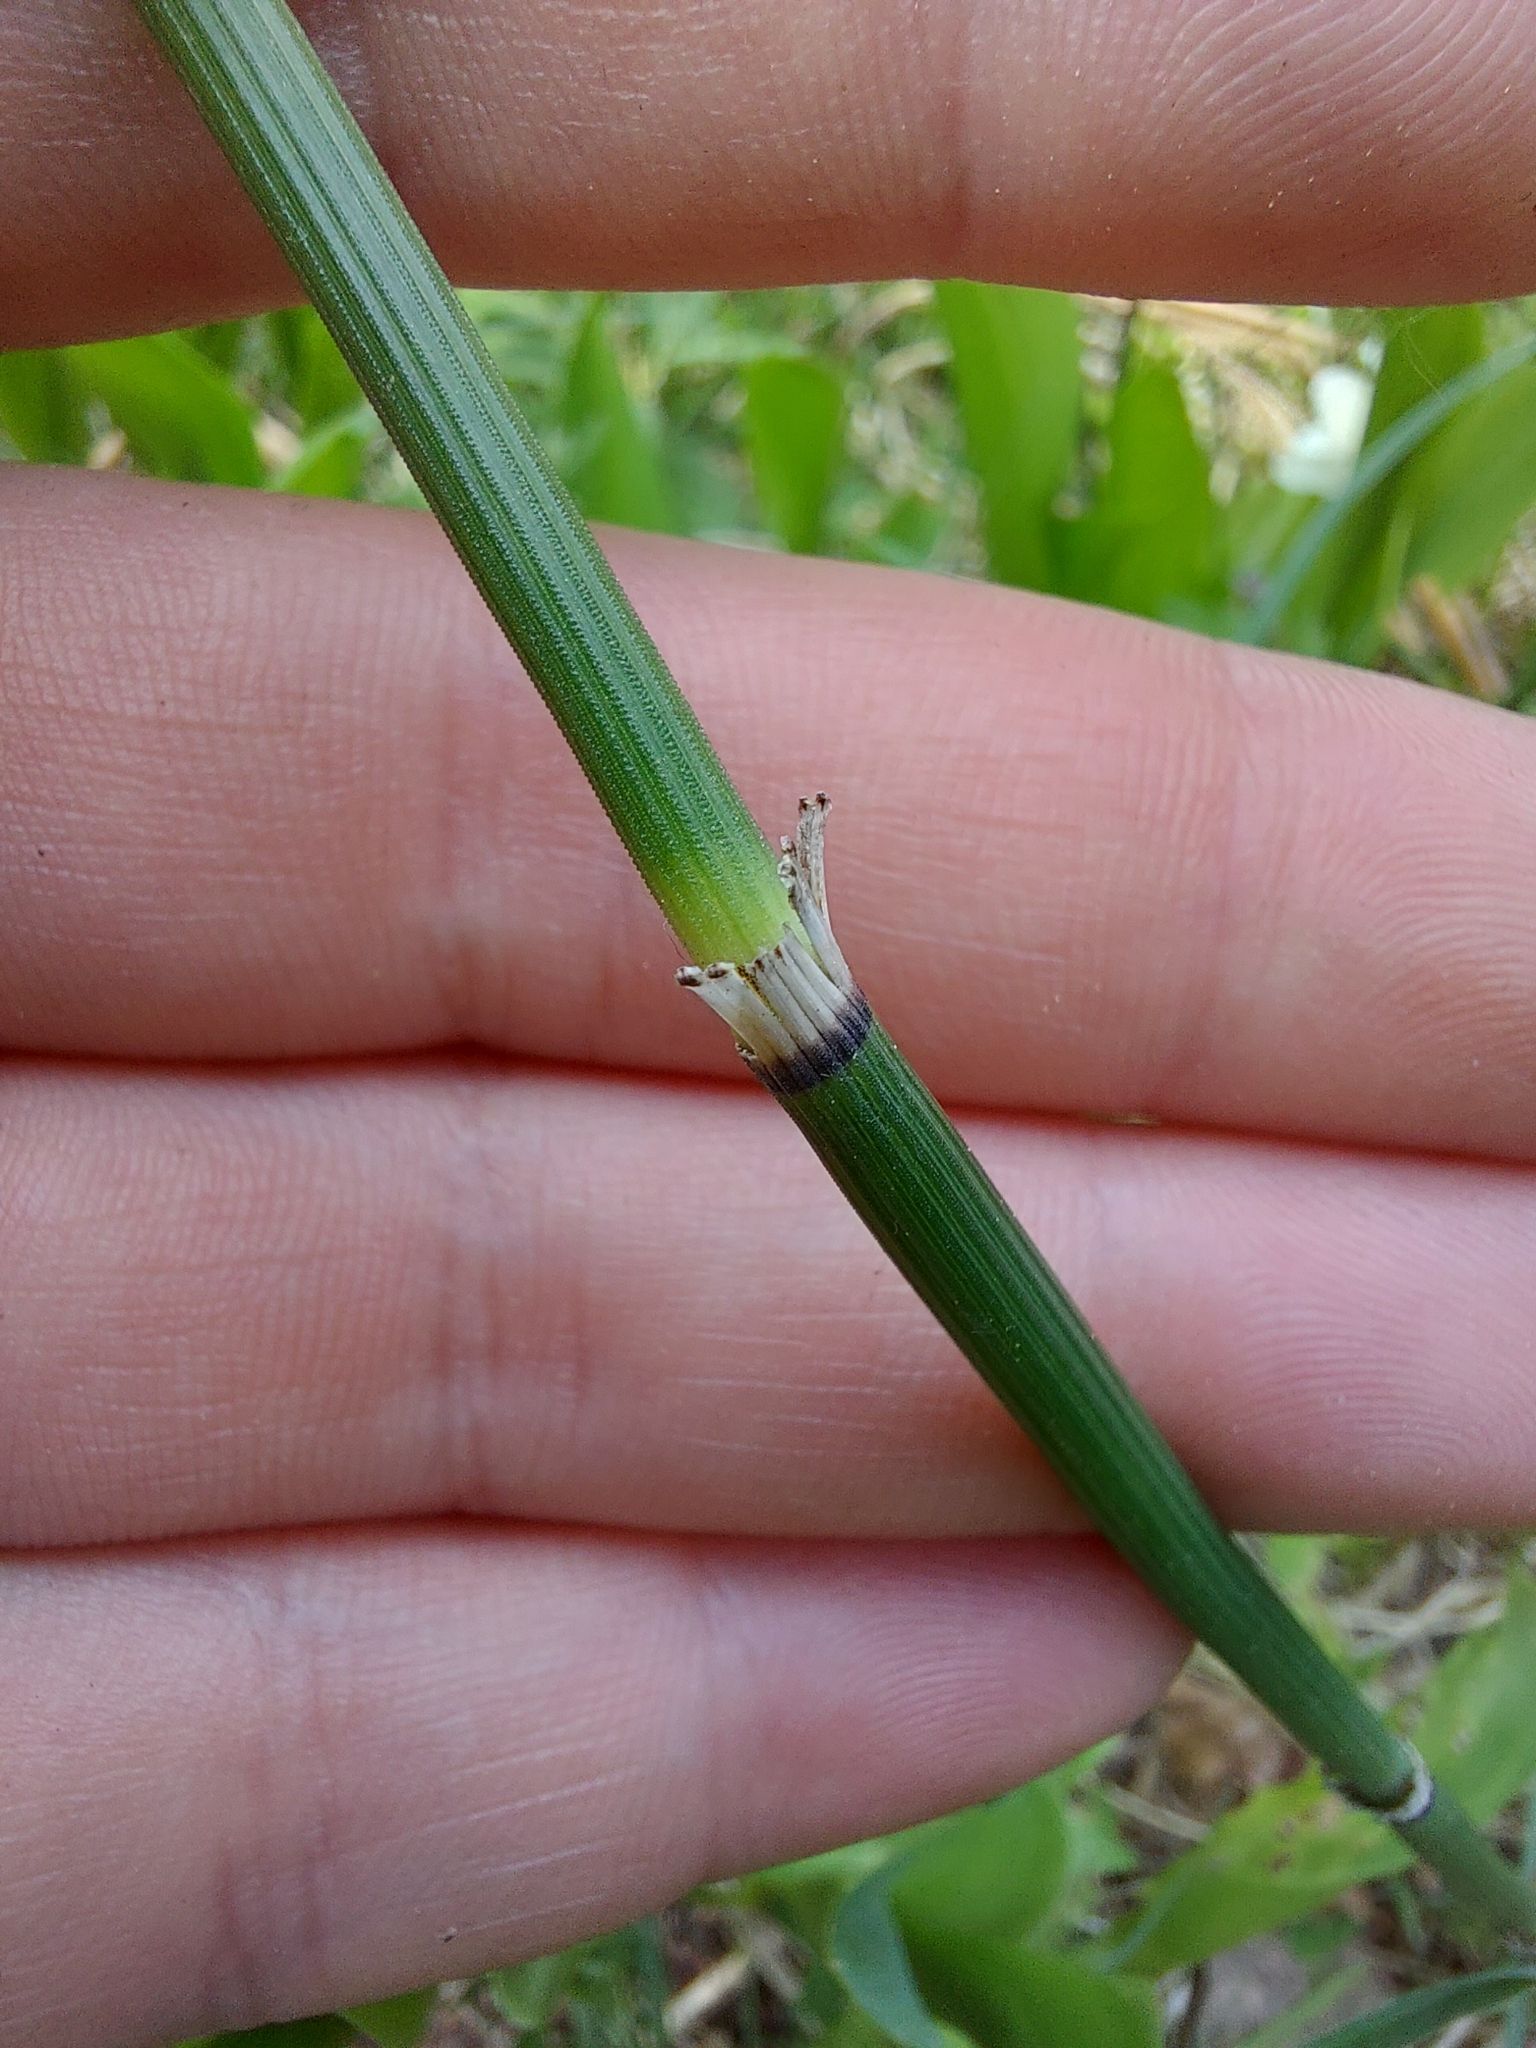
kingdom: Plantae
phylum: Tracheophyta
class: Polypodiopsida
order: Equisetales
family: Equisetaceae
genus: Equisetum
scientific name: Equisetum hyemale
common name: Rough horsetail
